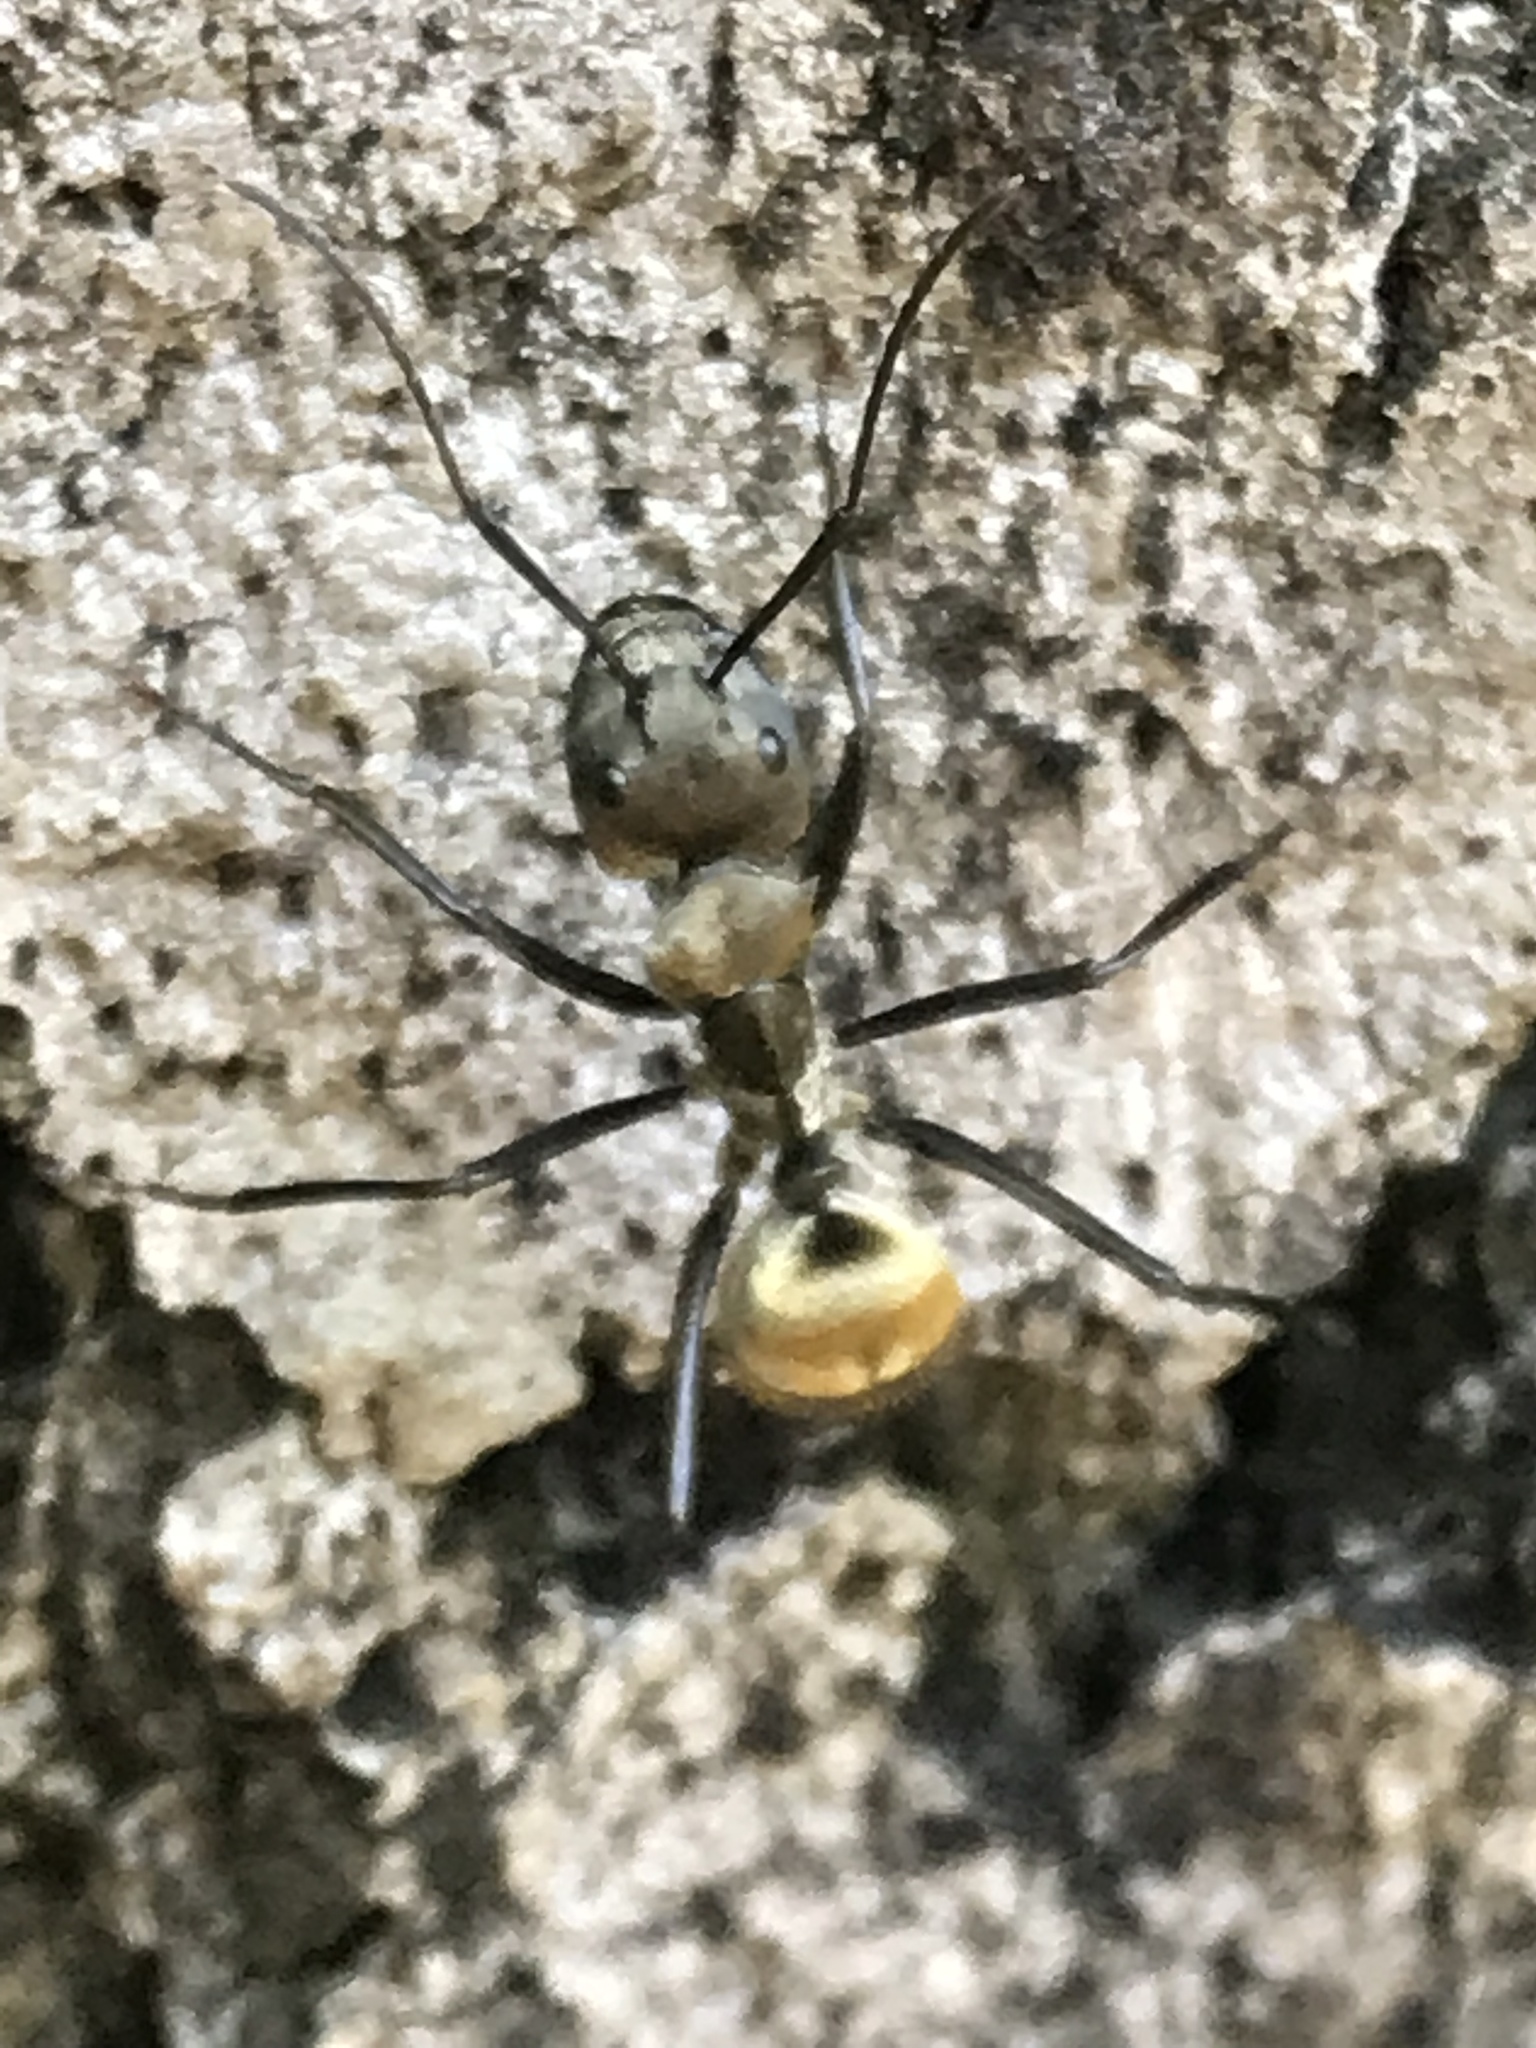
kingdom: Animalia
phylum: Arthropoda
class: Insecta
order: Hymenoptera
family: Formicidae
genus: Camponotus
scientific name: Camponotus sericeiventris
